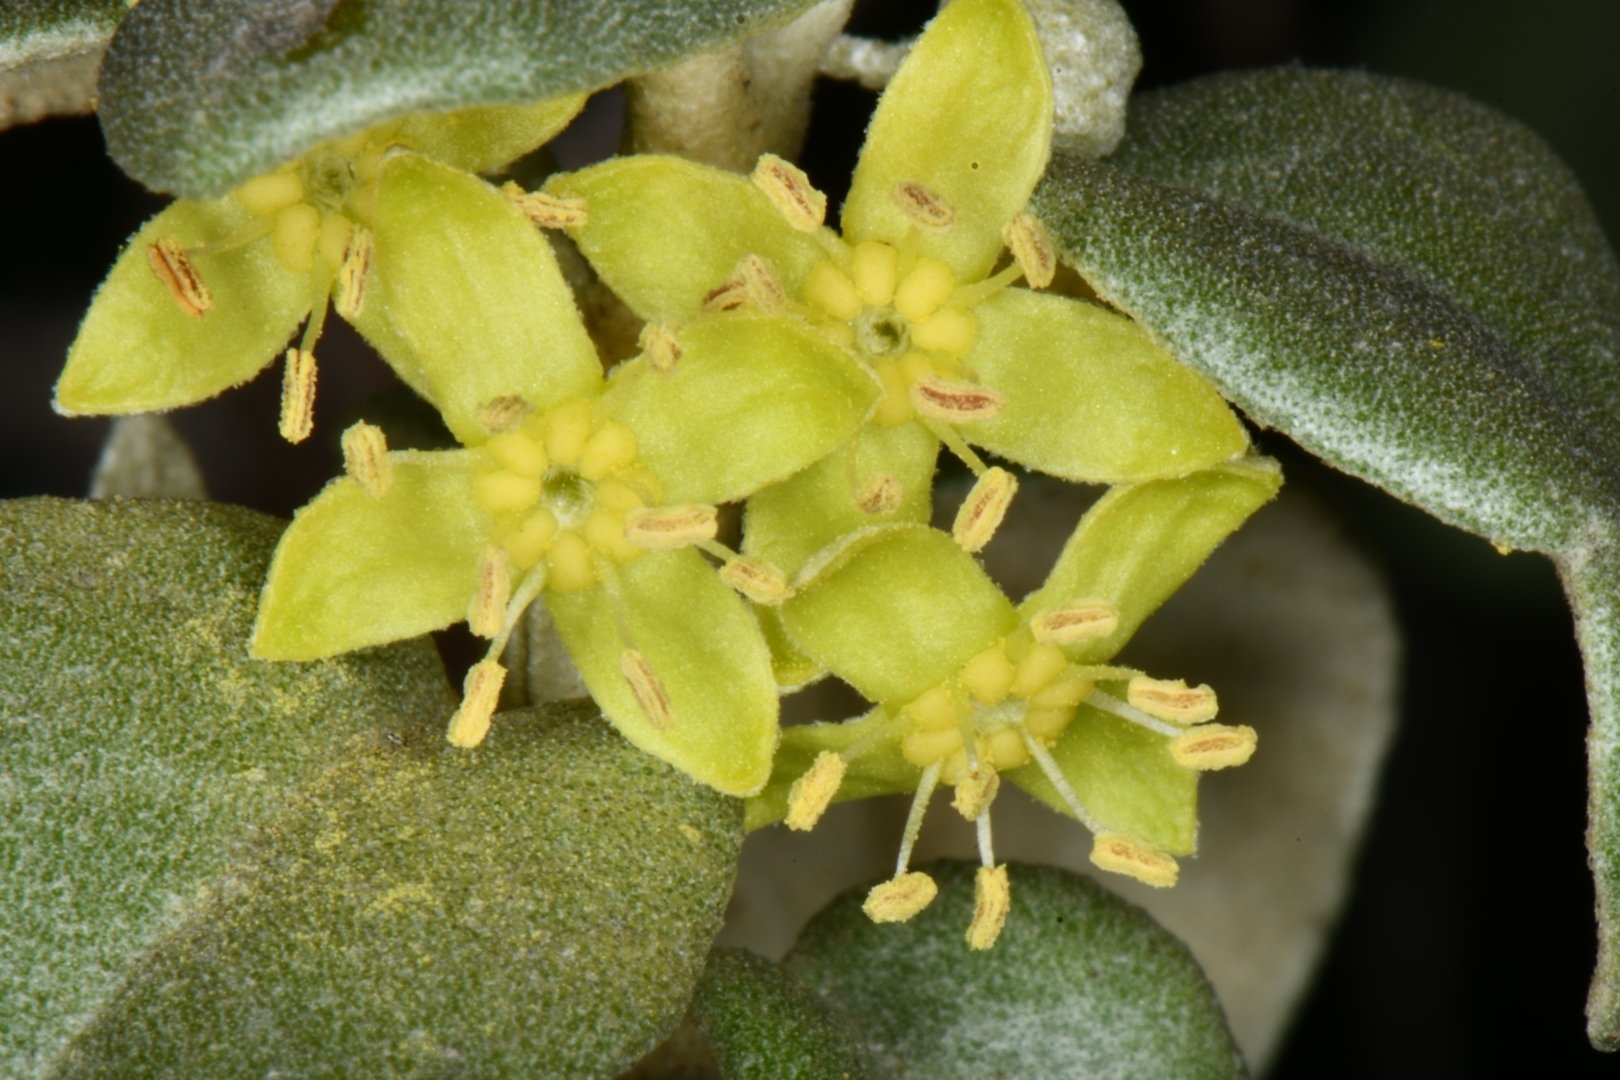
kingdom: Plantae
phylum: Tracheophyta
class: Magnoliopsida
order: Rosales
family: Elaeagnaceae
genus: Shepherdia
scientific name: Shepherdia rotundifolia
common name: Silverscale
